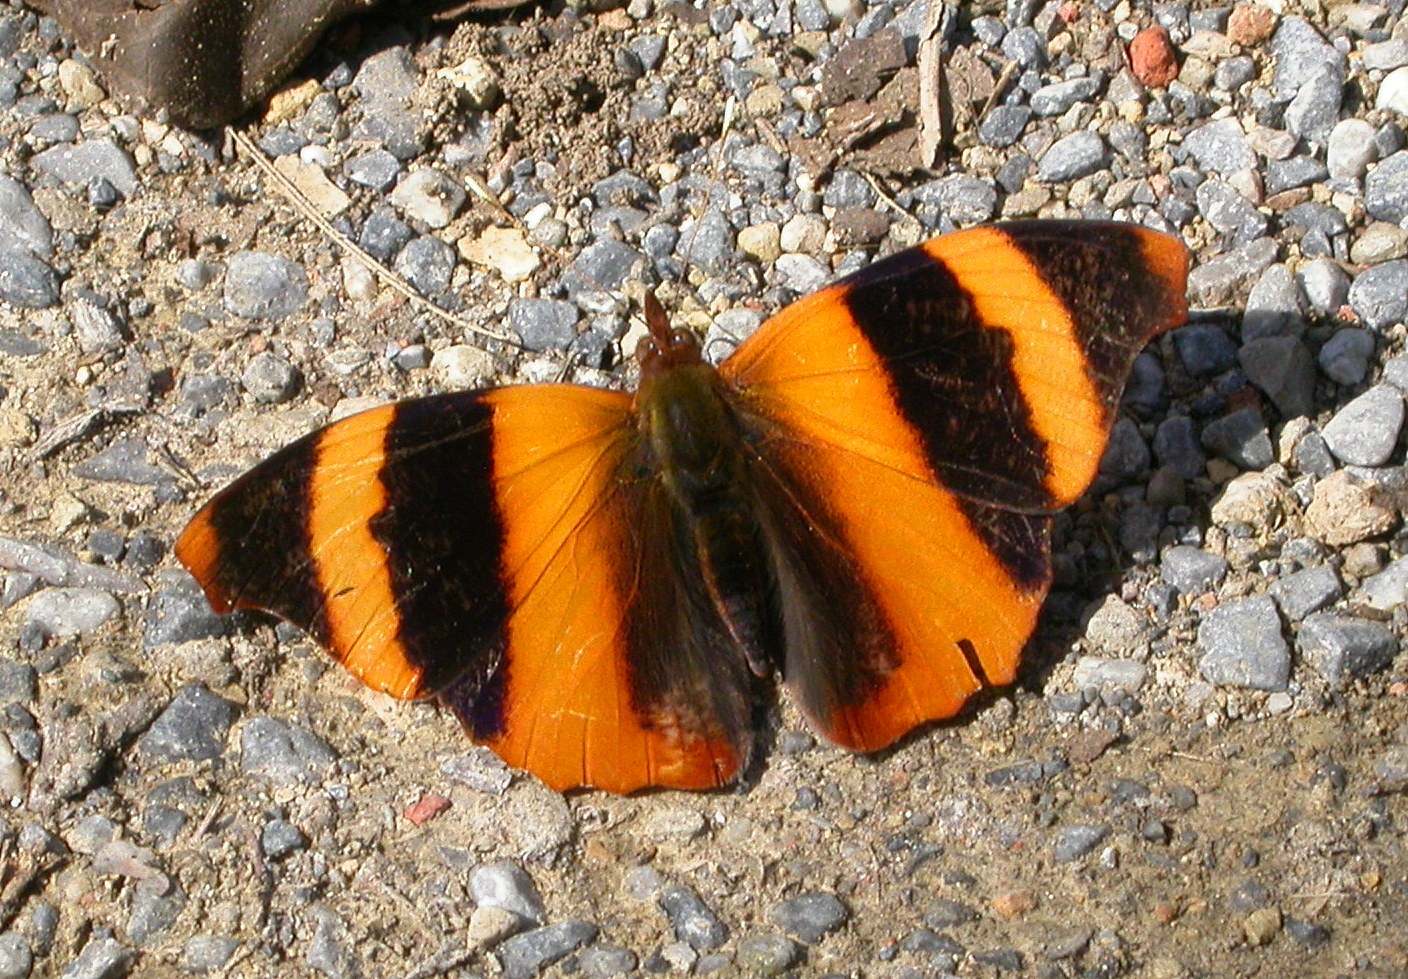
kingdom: Animalia
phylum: Arthropoda
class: Insecta
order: Lepidoptera
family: Nymphalidae
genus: Epiphile
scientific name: Epiphile adrasta
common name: Common banner
